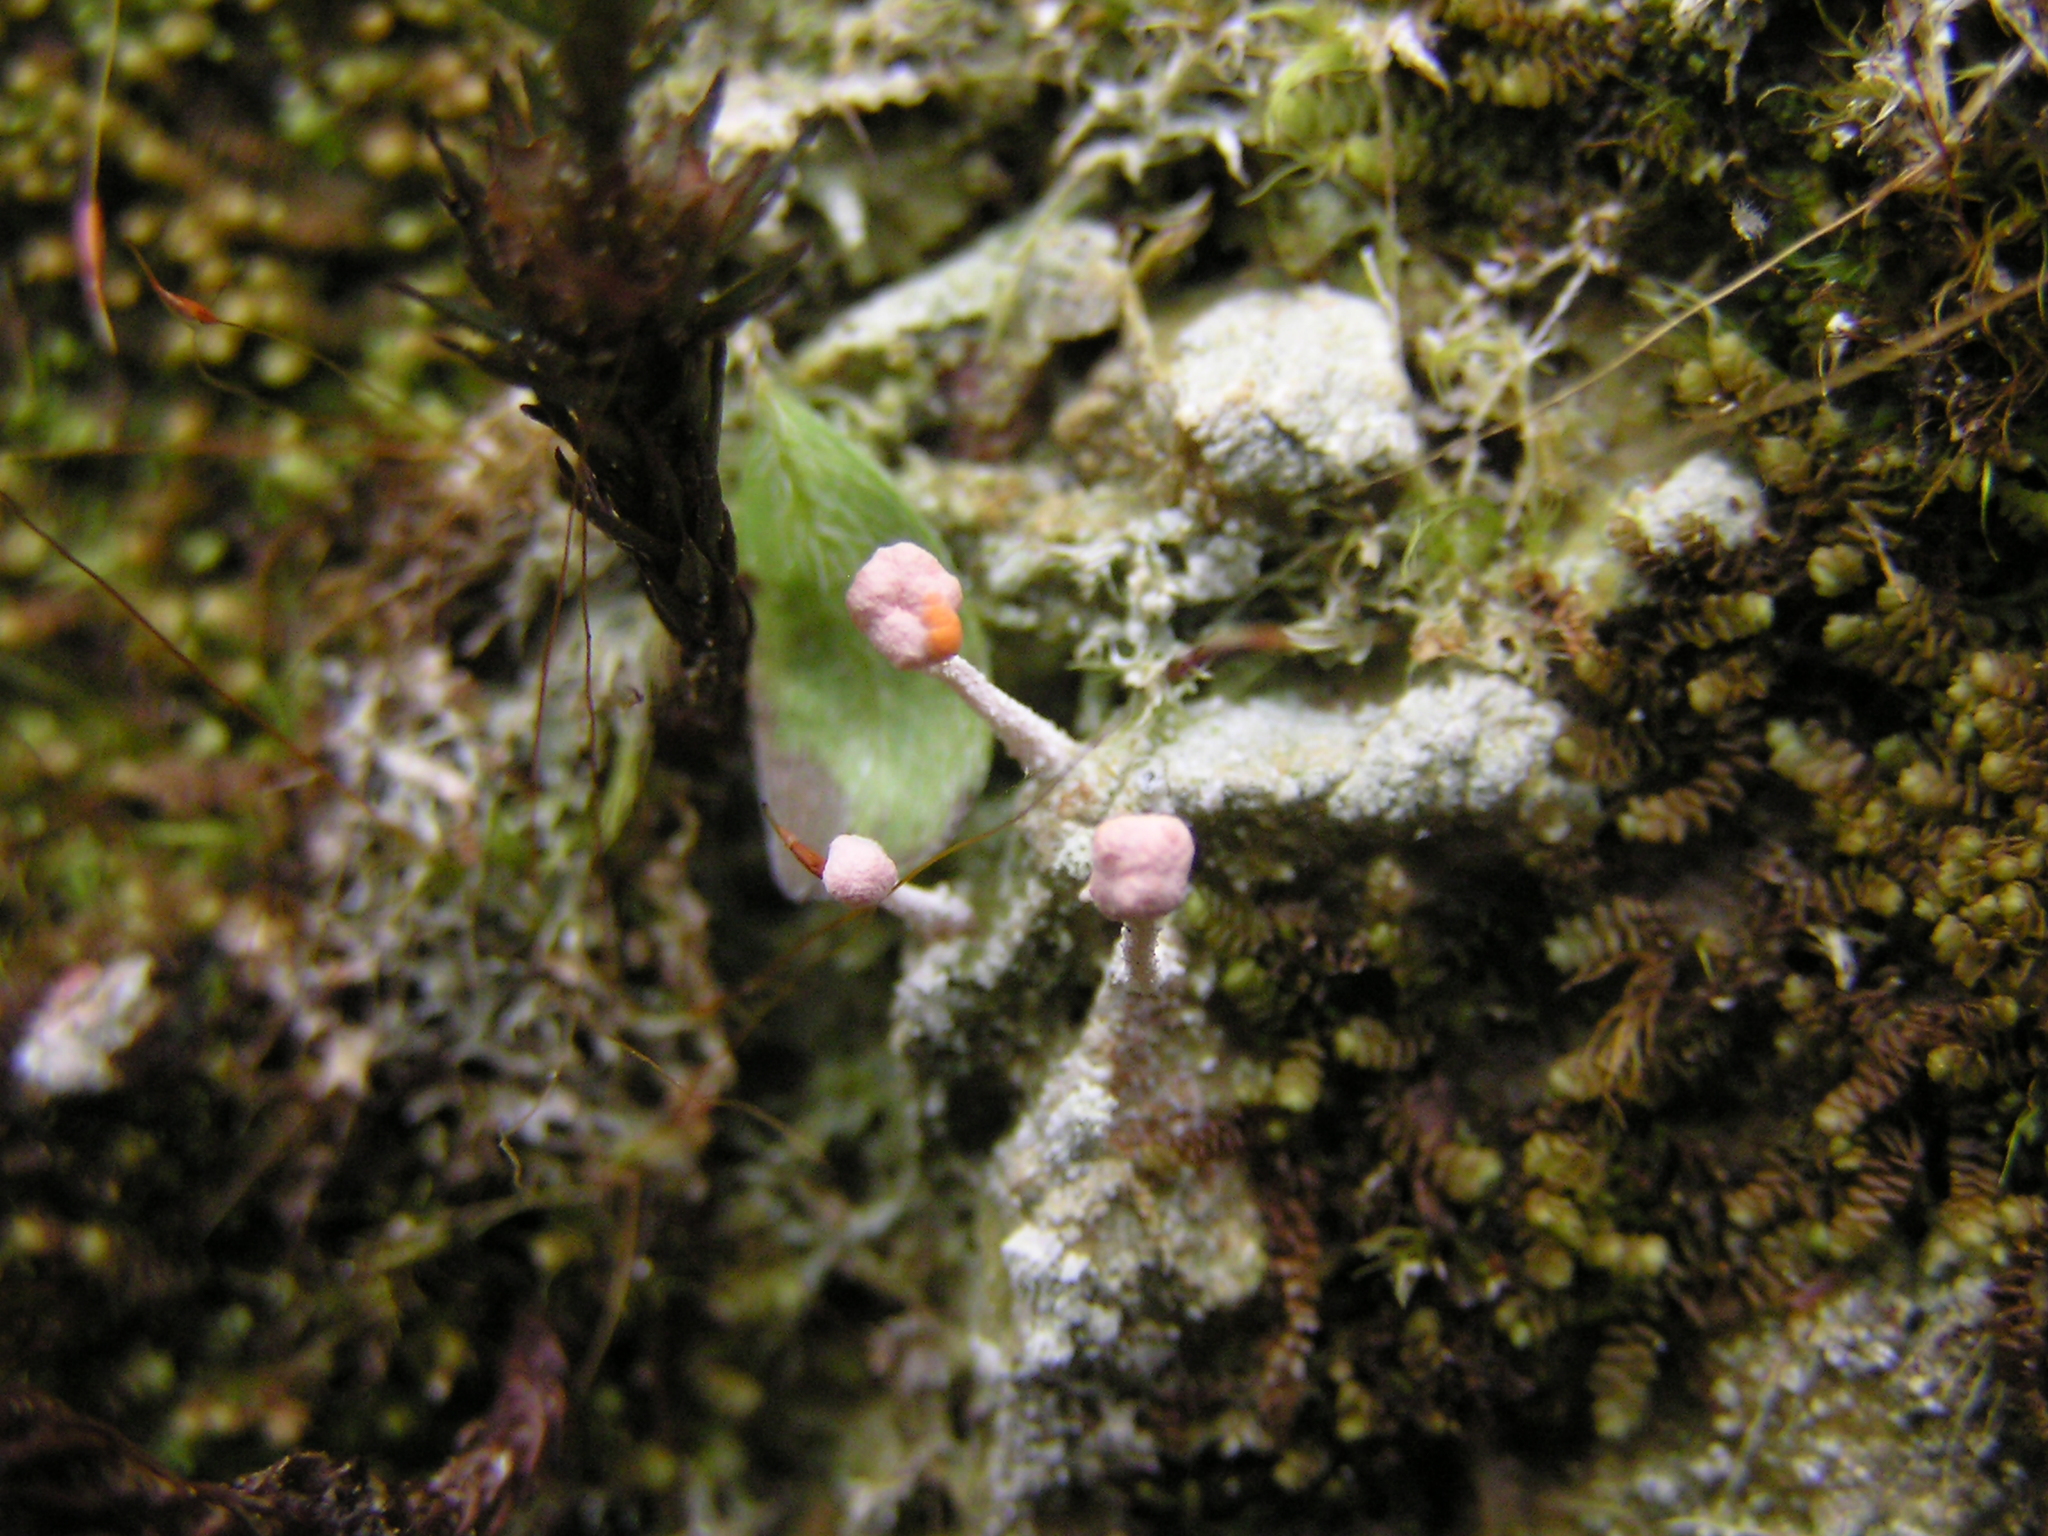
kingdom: Fungi
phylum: Ascomycota
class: Lecanoromycetes
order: Pertusariales
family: Icmadophilaceae
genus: Dibaeis
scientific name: Dibaeis arcuata
